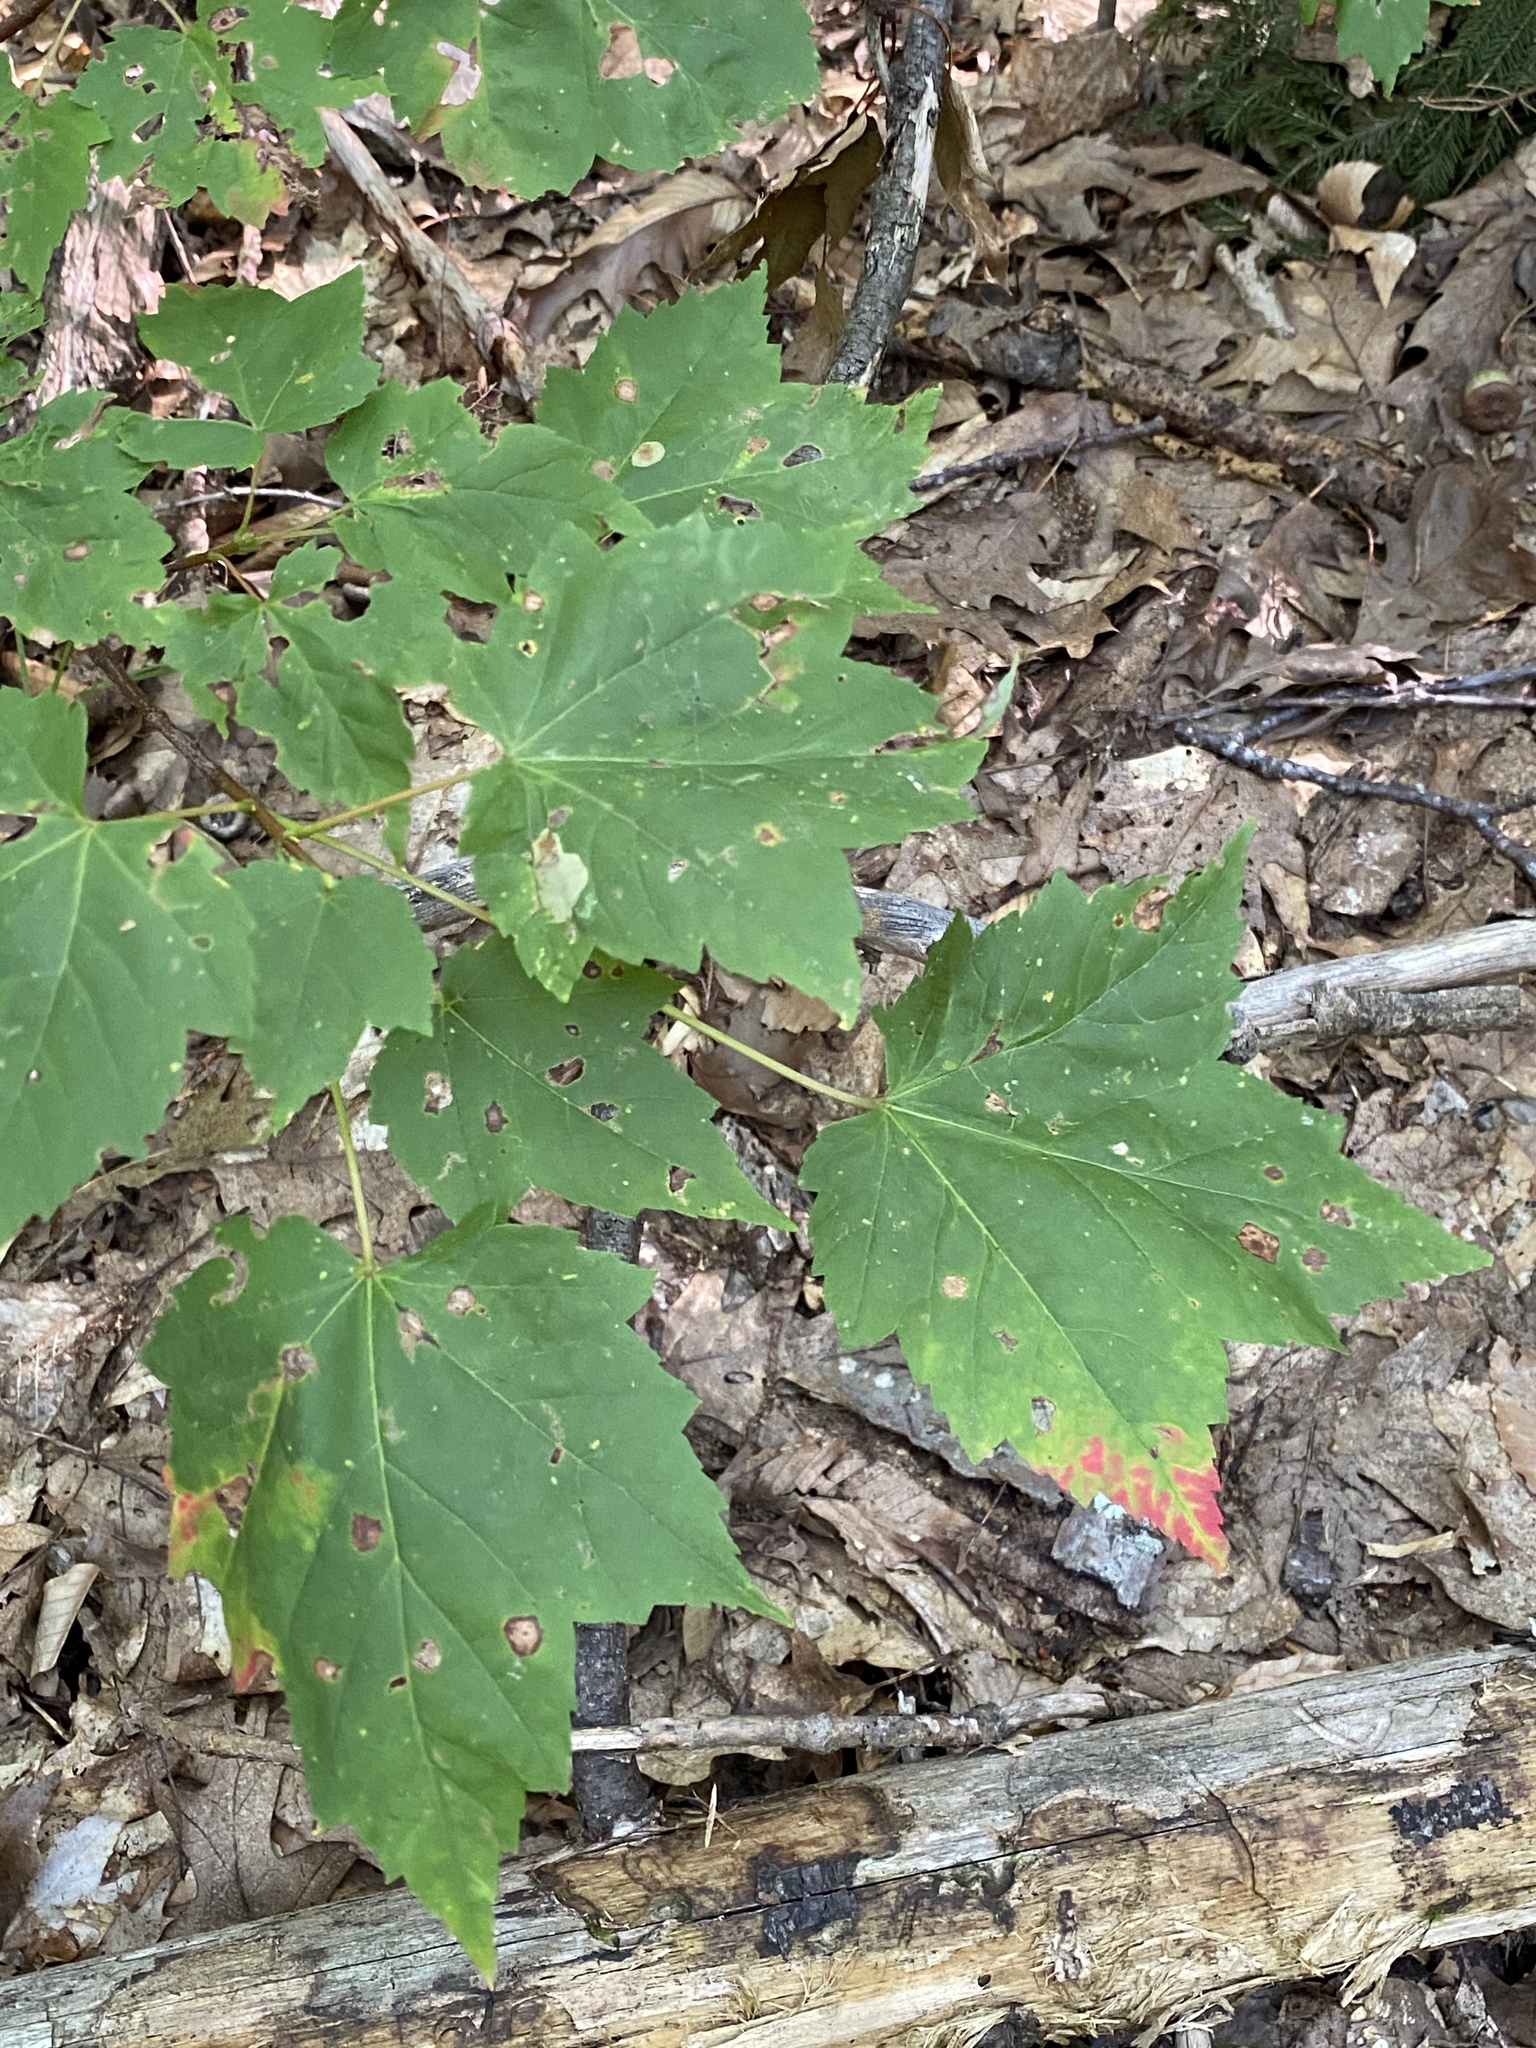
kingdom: Plantae
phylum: Tracheophyta
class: Magnoliopsida
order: Sapindales
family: Sapindaceae
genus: Acer
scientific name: Acer rubrum
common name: Red maple
